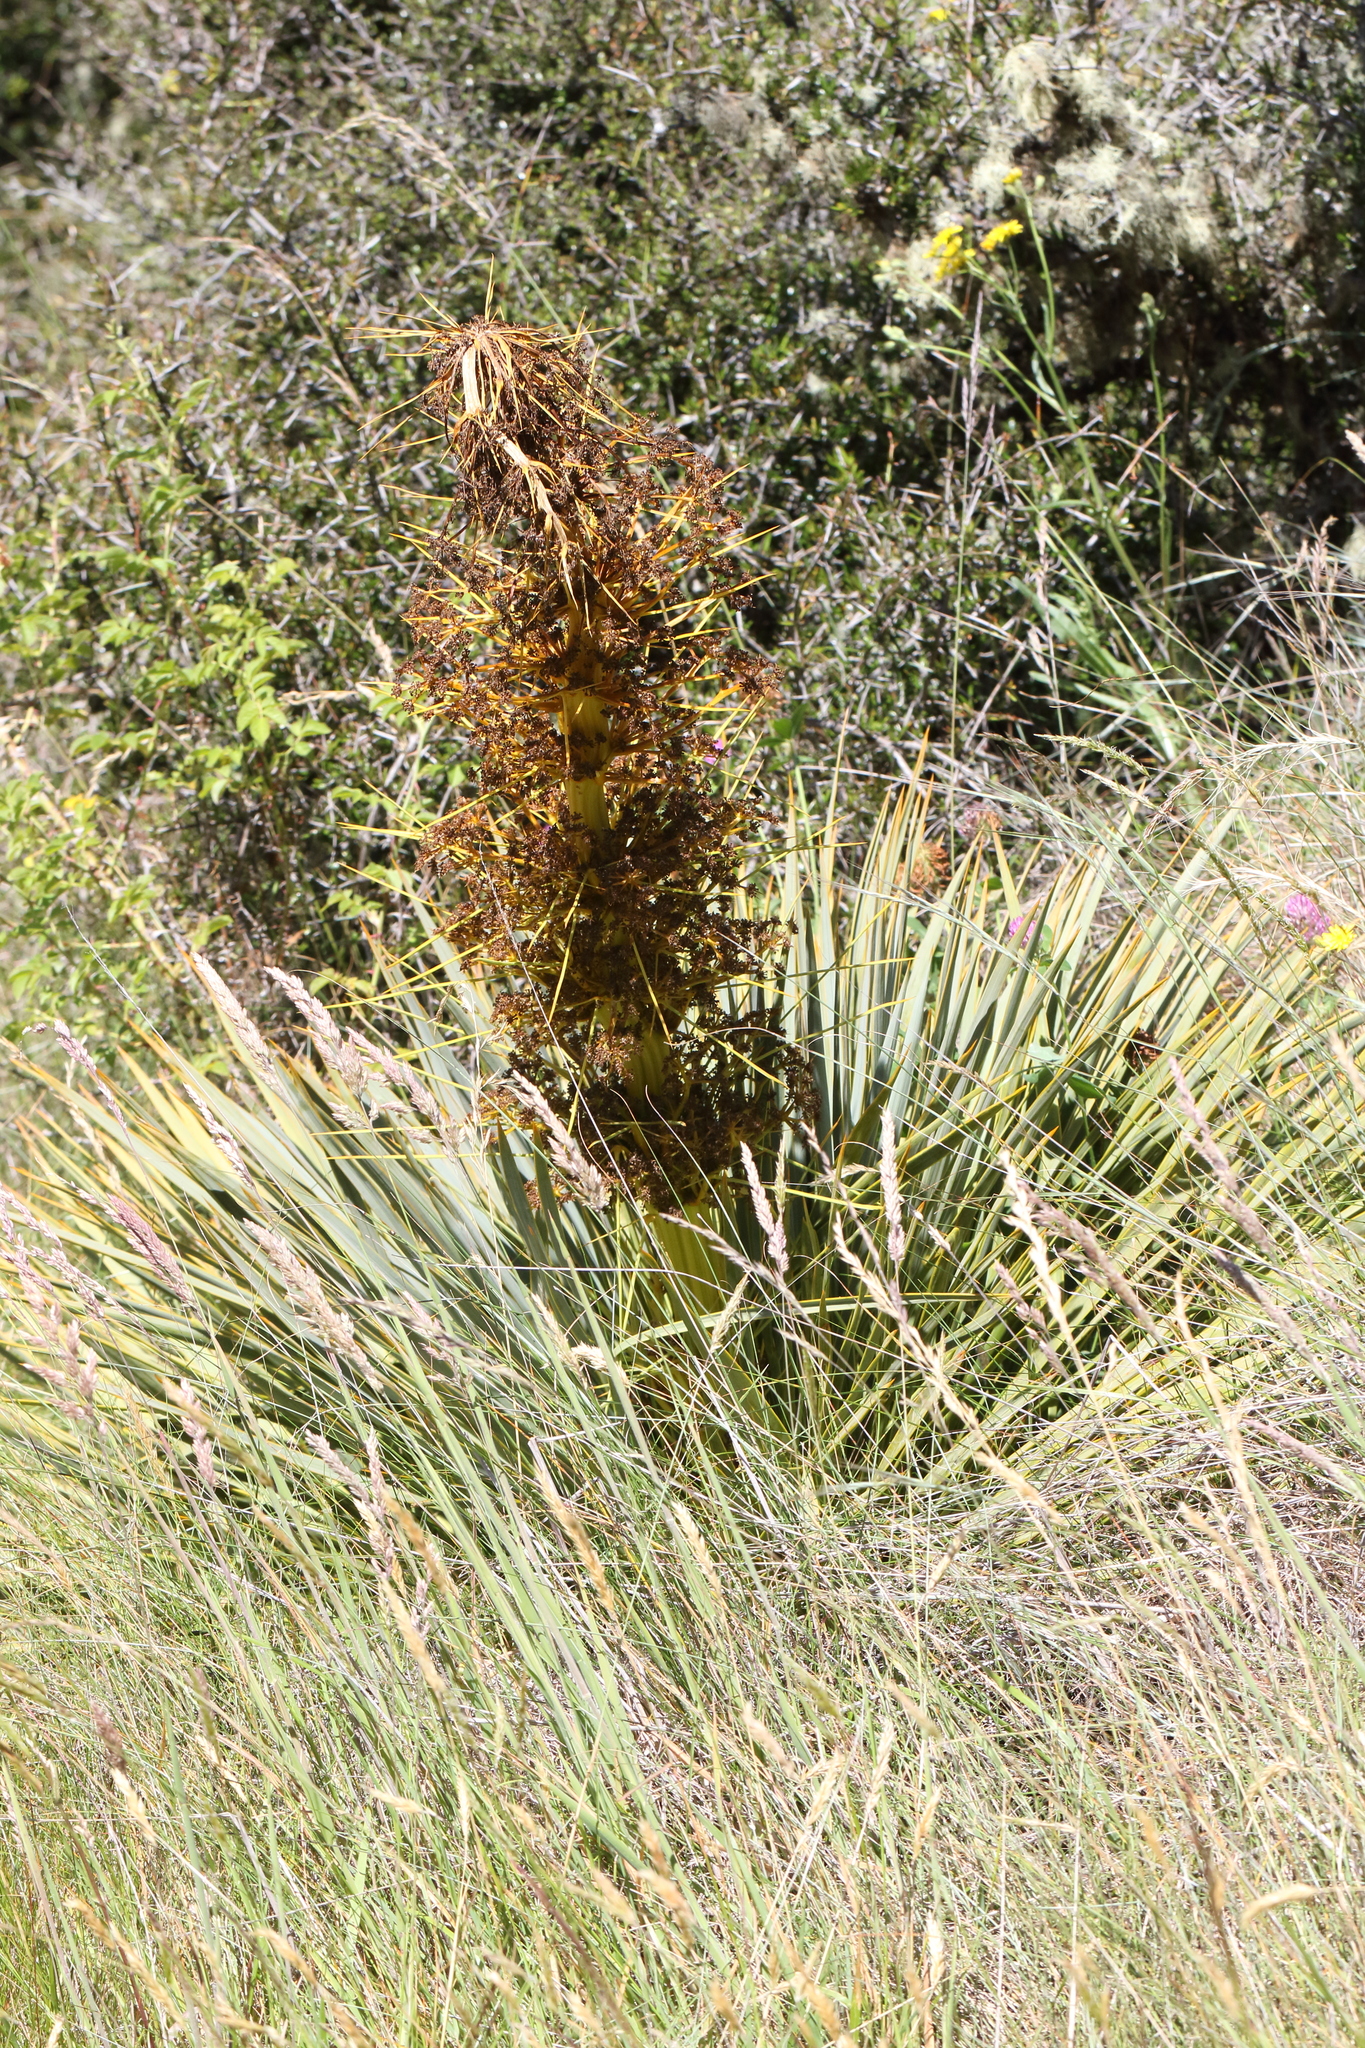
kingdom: Plantae
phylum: Tracheophyta
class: Magnoliopsida
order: Apiales
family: Apiaceae
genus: Aciphylla
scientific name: Aciphylla aurea
